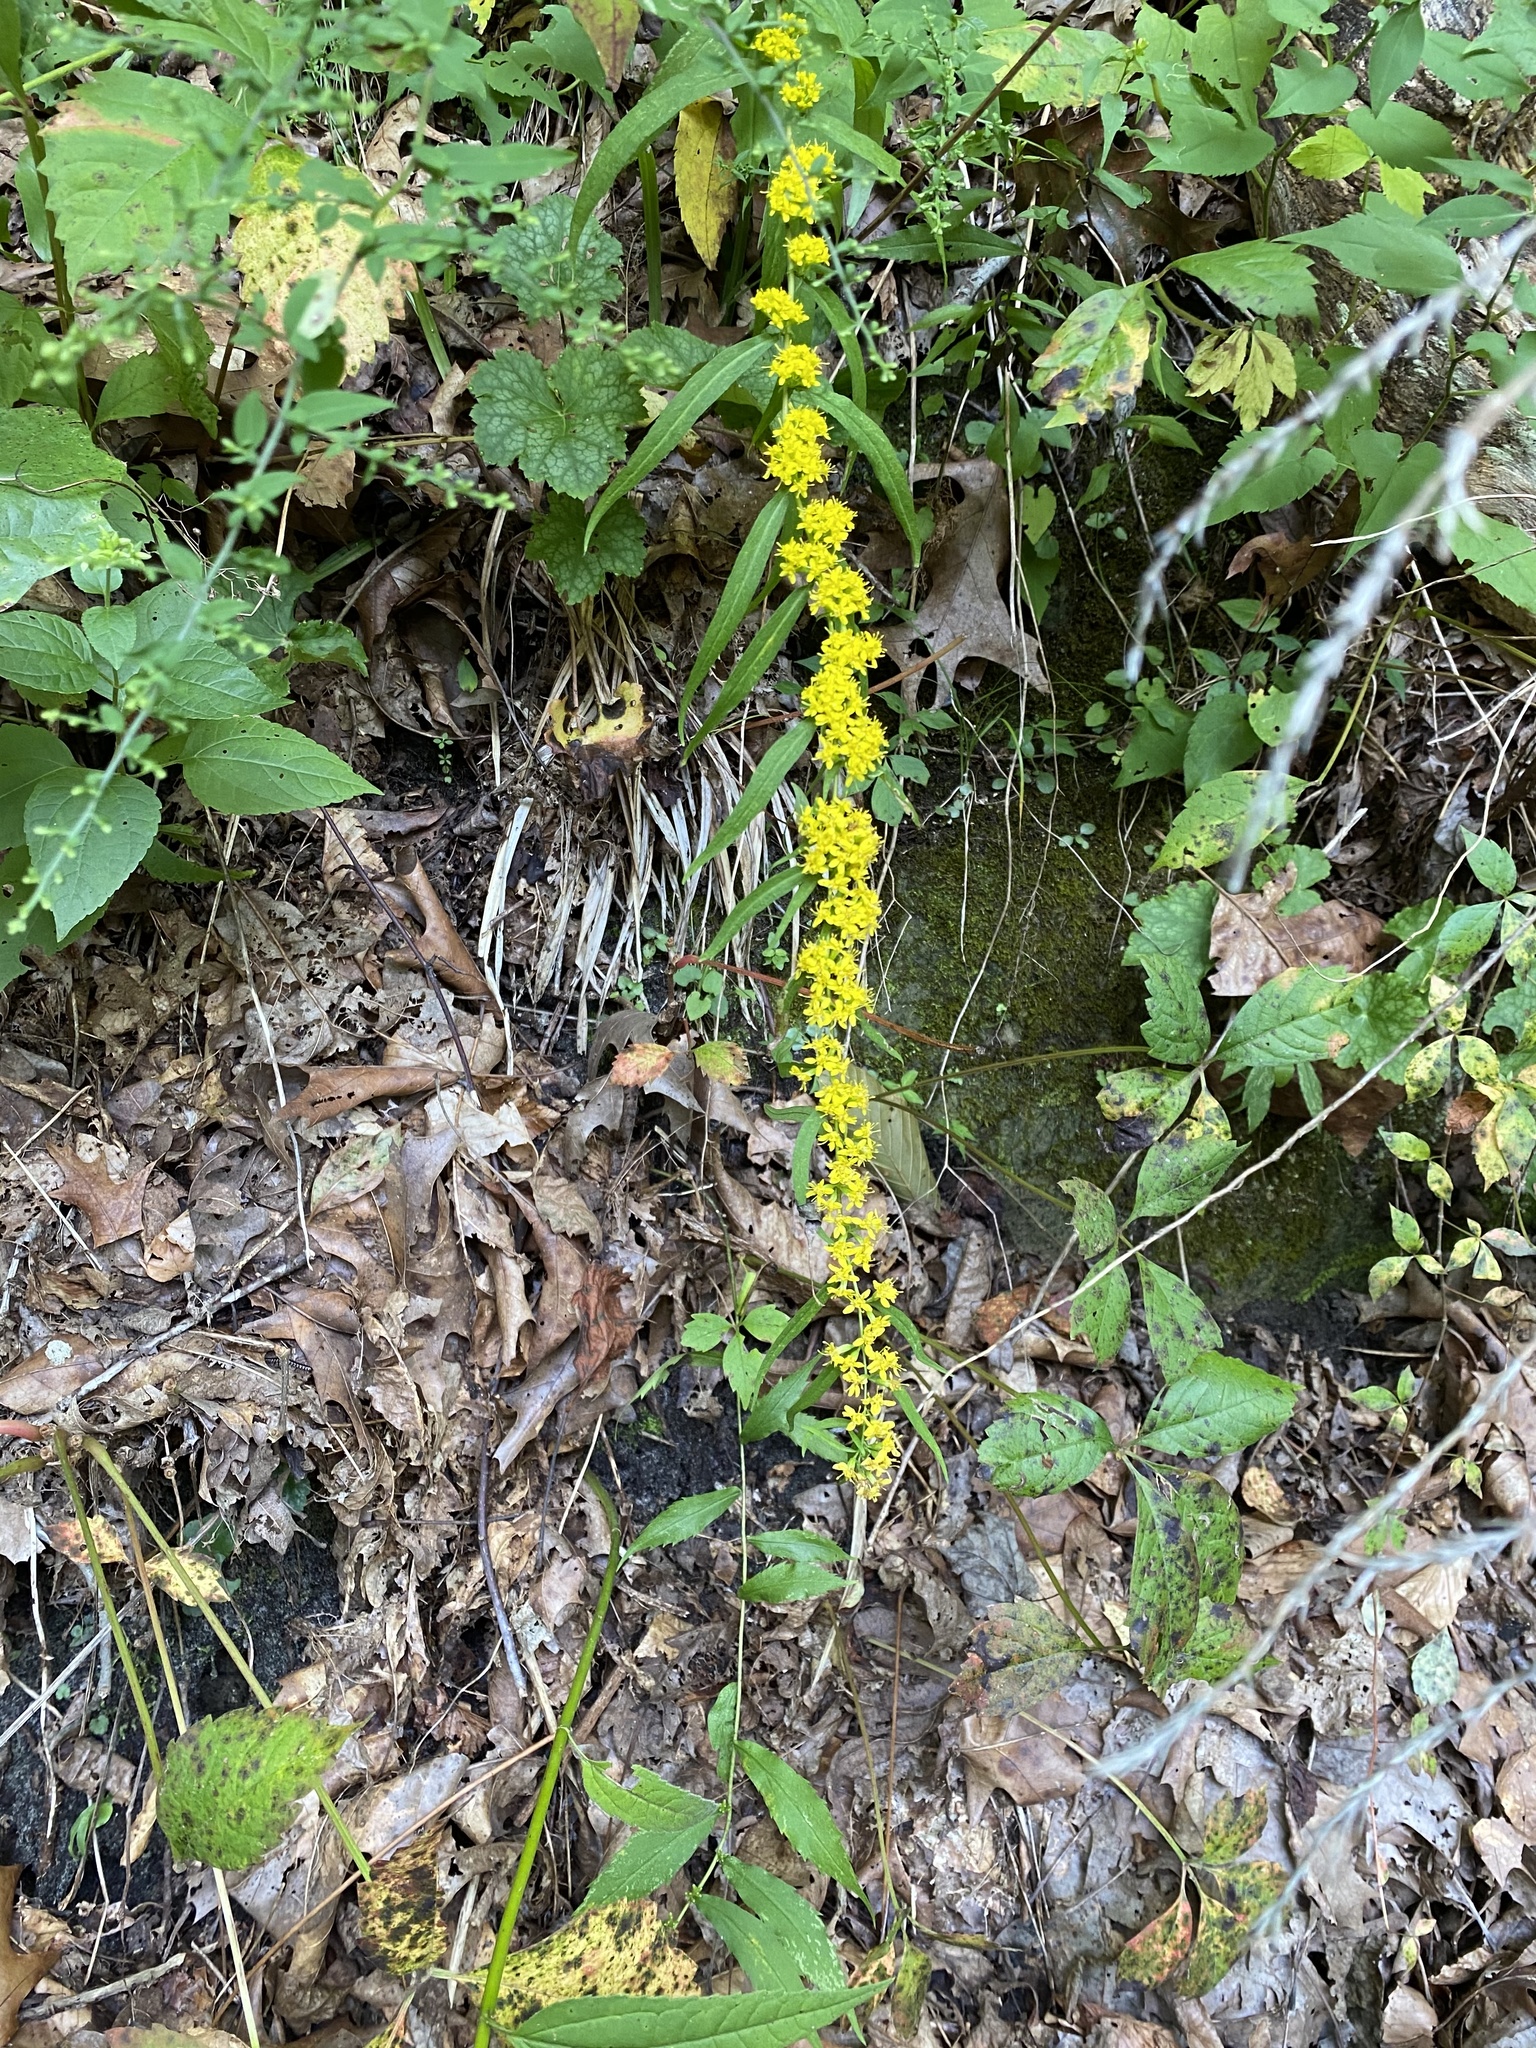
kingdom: Plantae
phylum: Tracheophyta
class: Magnoliopsida
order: Asterales
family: Asteraceae
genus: Solidago
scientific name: Solidago caesia
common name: Woodland goldenrod
